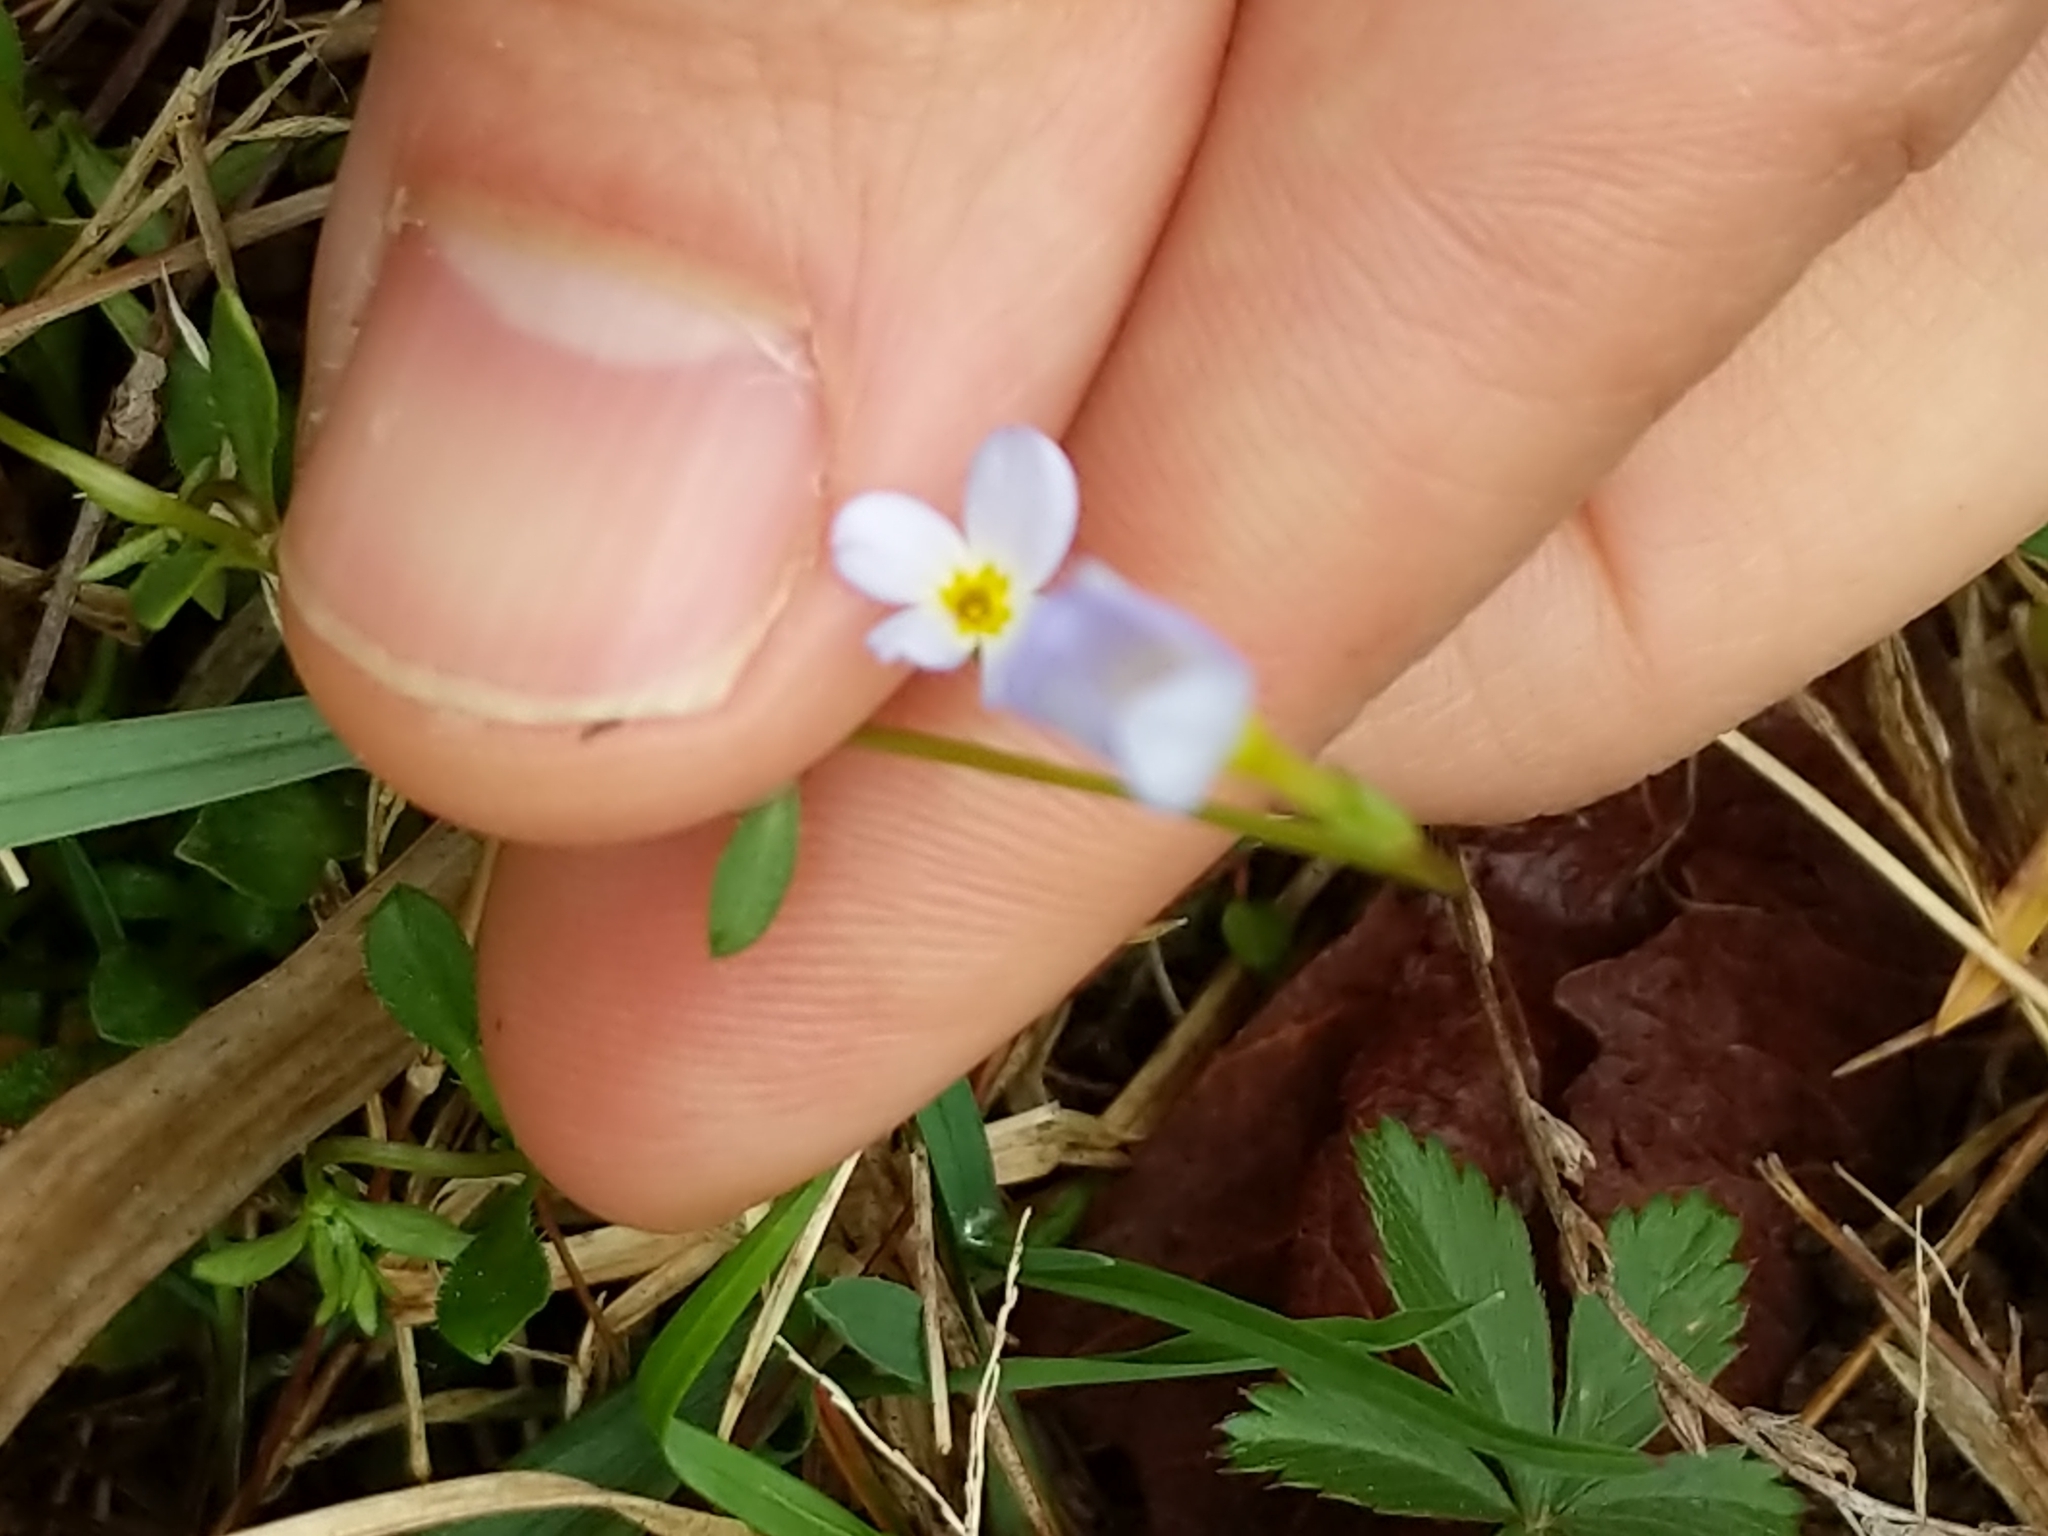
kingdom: Plantae
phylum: Tracheophyta
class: Magnoliopsida
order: Gentianales
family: Rubiaceae
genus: Houstonia
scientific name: Houstonia caerulea
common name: Bluets
